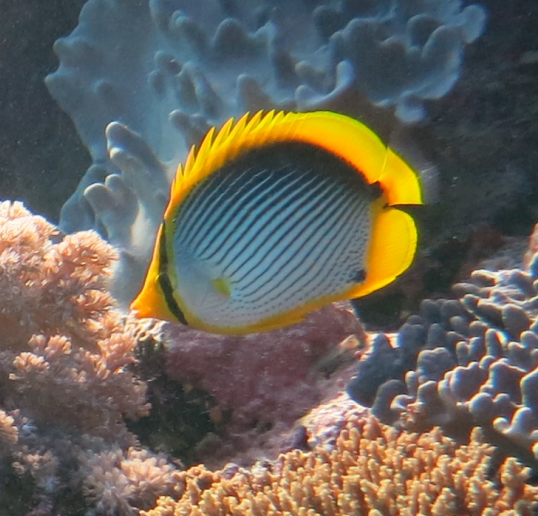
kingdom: Animalia
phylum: Chordata
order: Perciformes
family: Chaetodontidae
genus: Chaetodon
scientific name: Chaetodon melannotus
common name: Blackback butterflyfish
